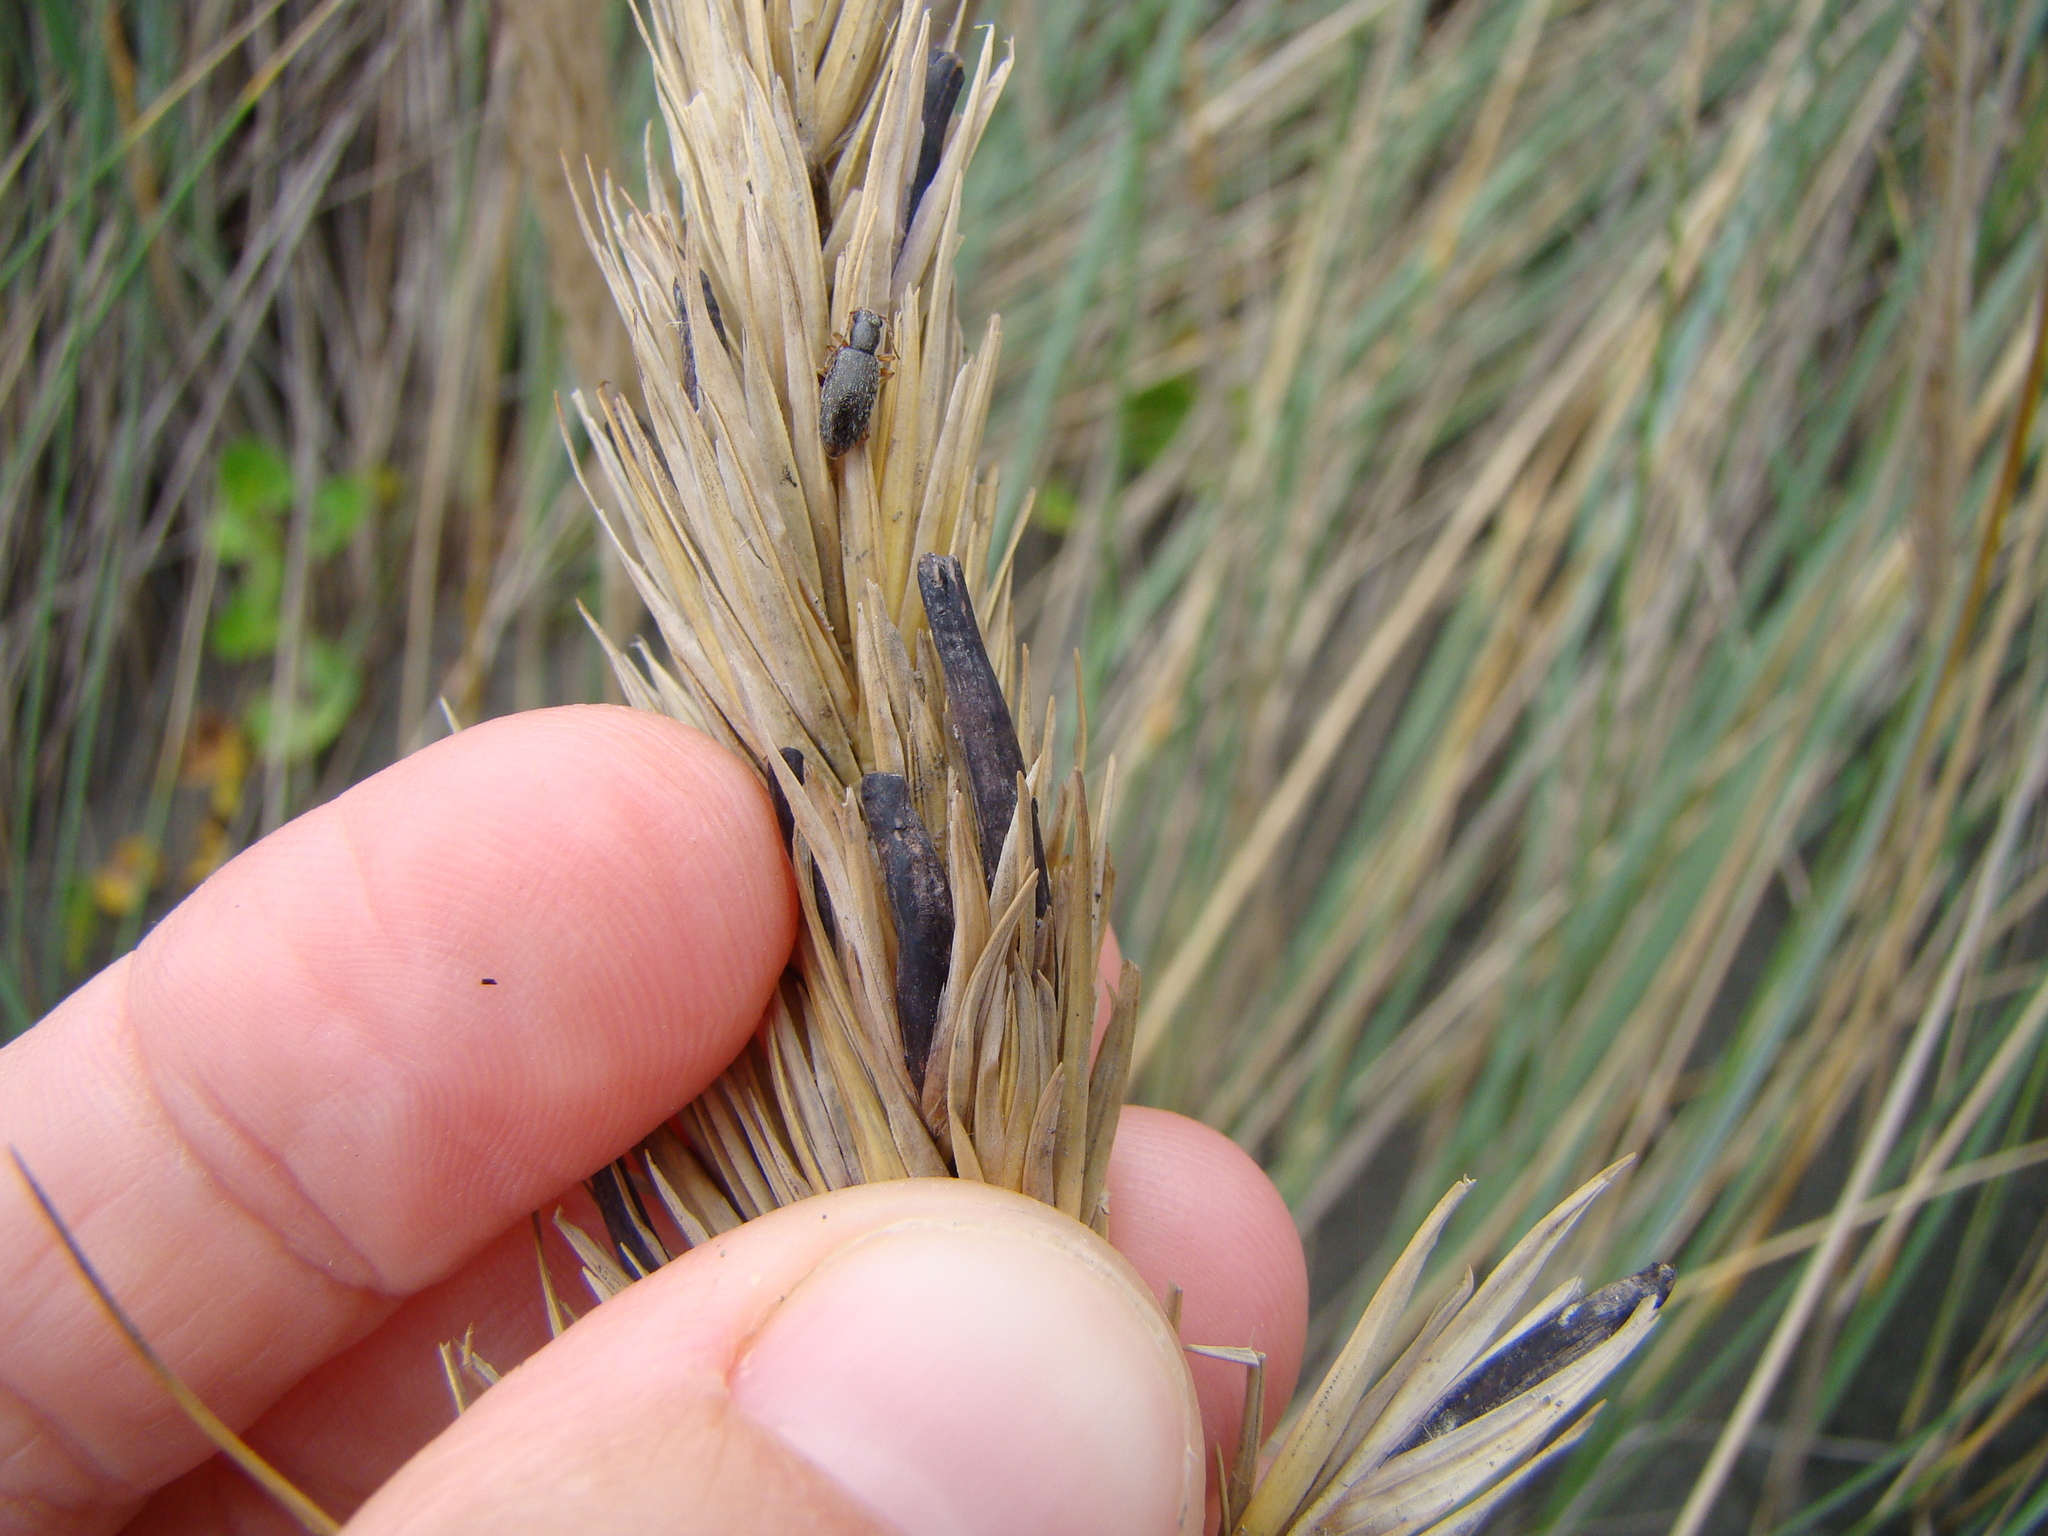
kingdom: Fungi
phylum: Ascomycota
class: Sordariomycetes
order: Hypocreales
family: Clavicipitaceae
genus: Claviceps
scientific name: Claviceps purpurea
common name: Rye ergot
